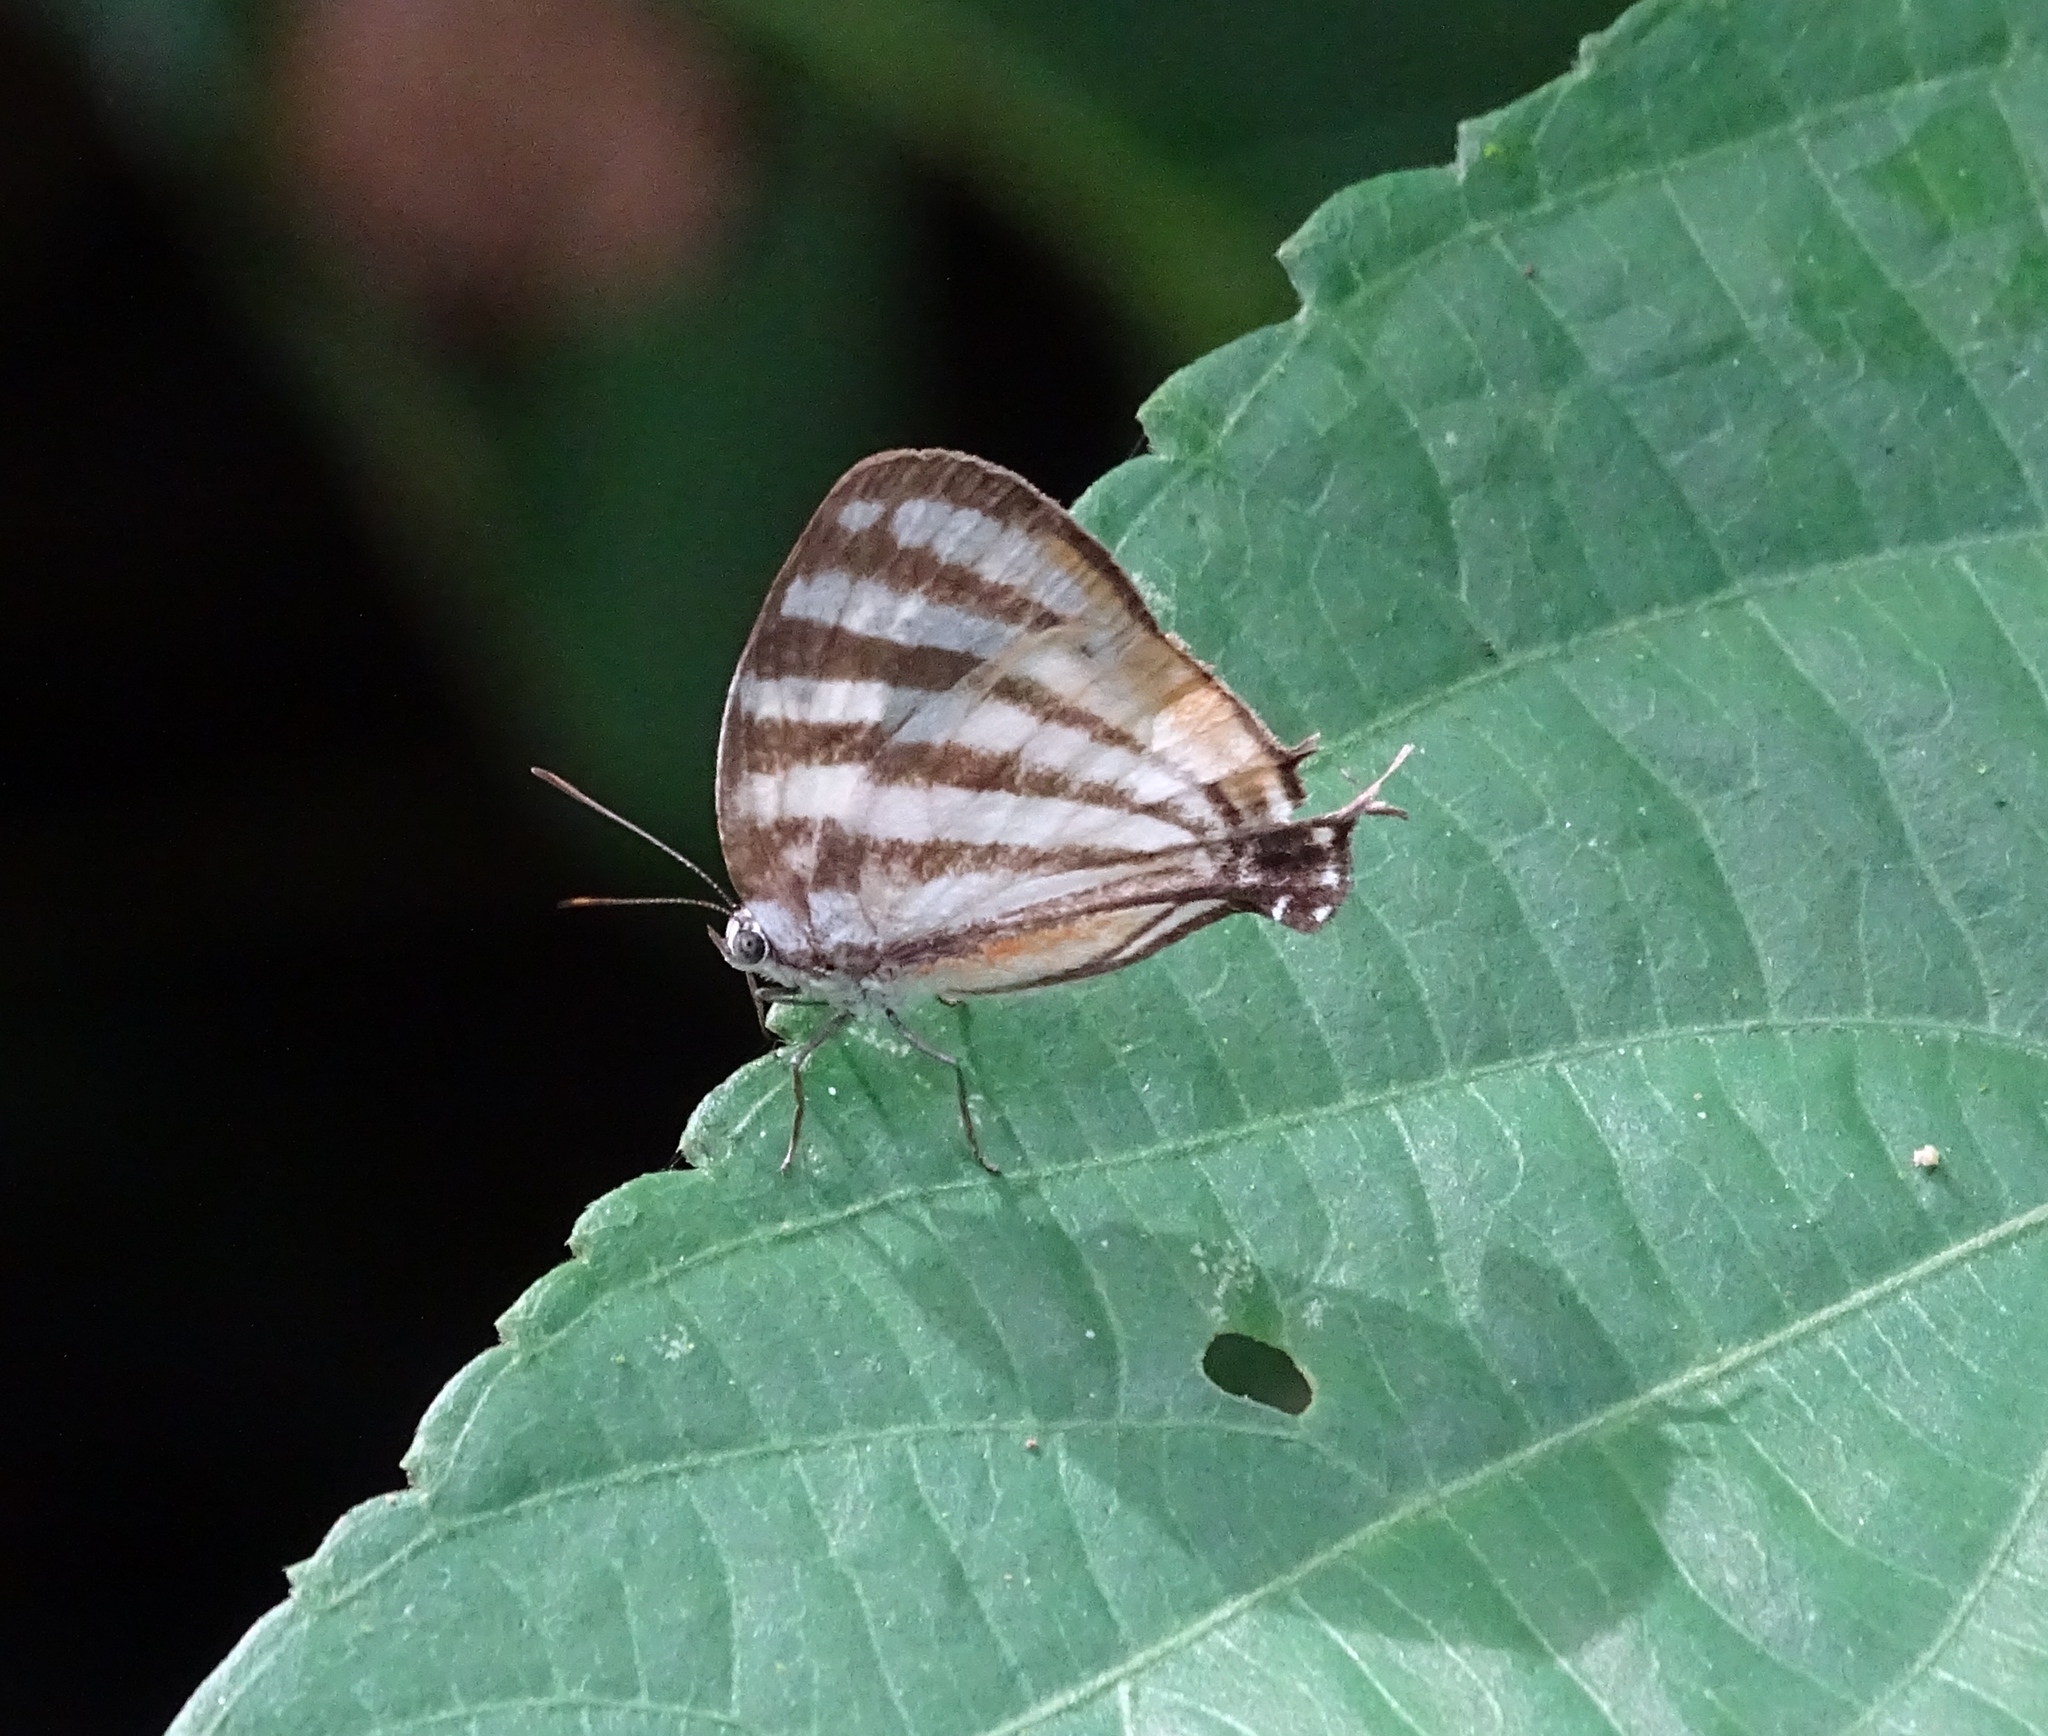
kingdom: Animalia
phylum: Arthropoda
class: Insecta
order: Lepidoptera
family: Lycaenidae
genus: Arawacus
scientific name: Arawacus lincoides
